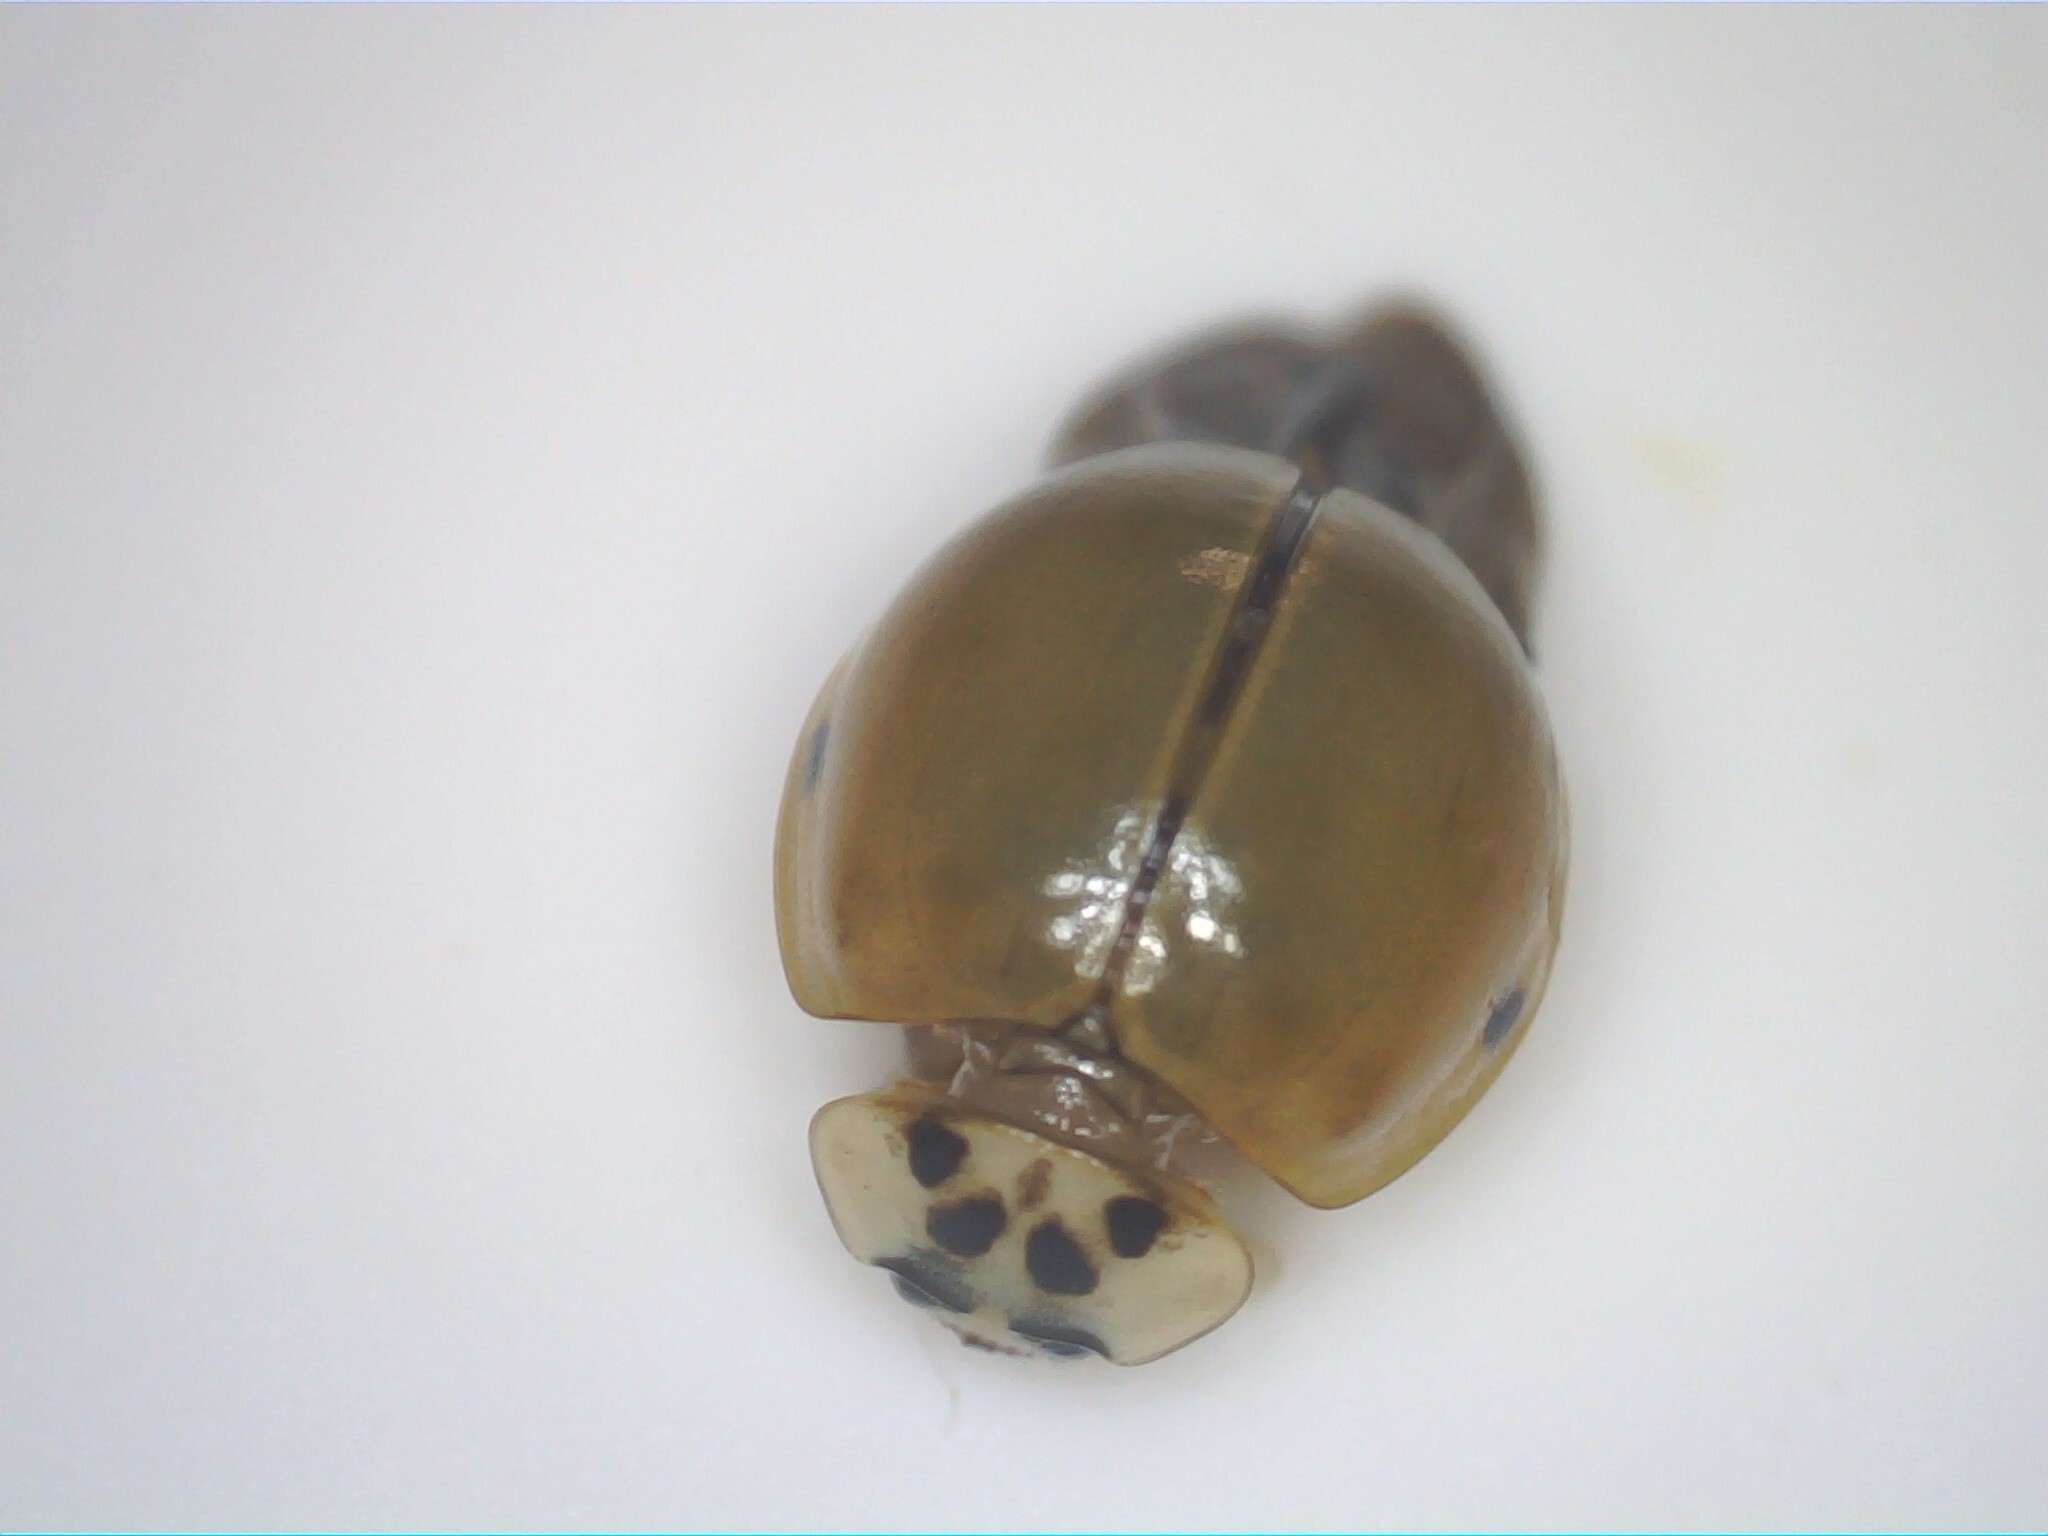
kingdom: Animalia
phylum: Arthropoda
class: Insecta
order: Coleoptera
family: Coccinellidae
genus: Harmonia
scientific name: Harmonia axyridis
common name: Harlequin ladybird
